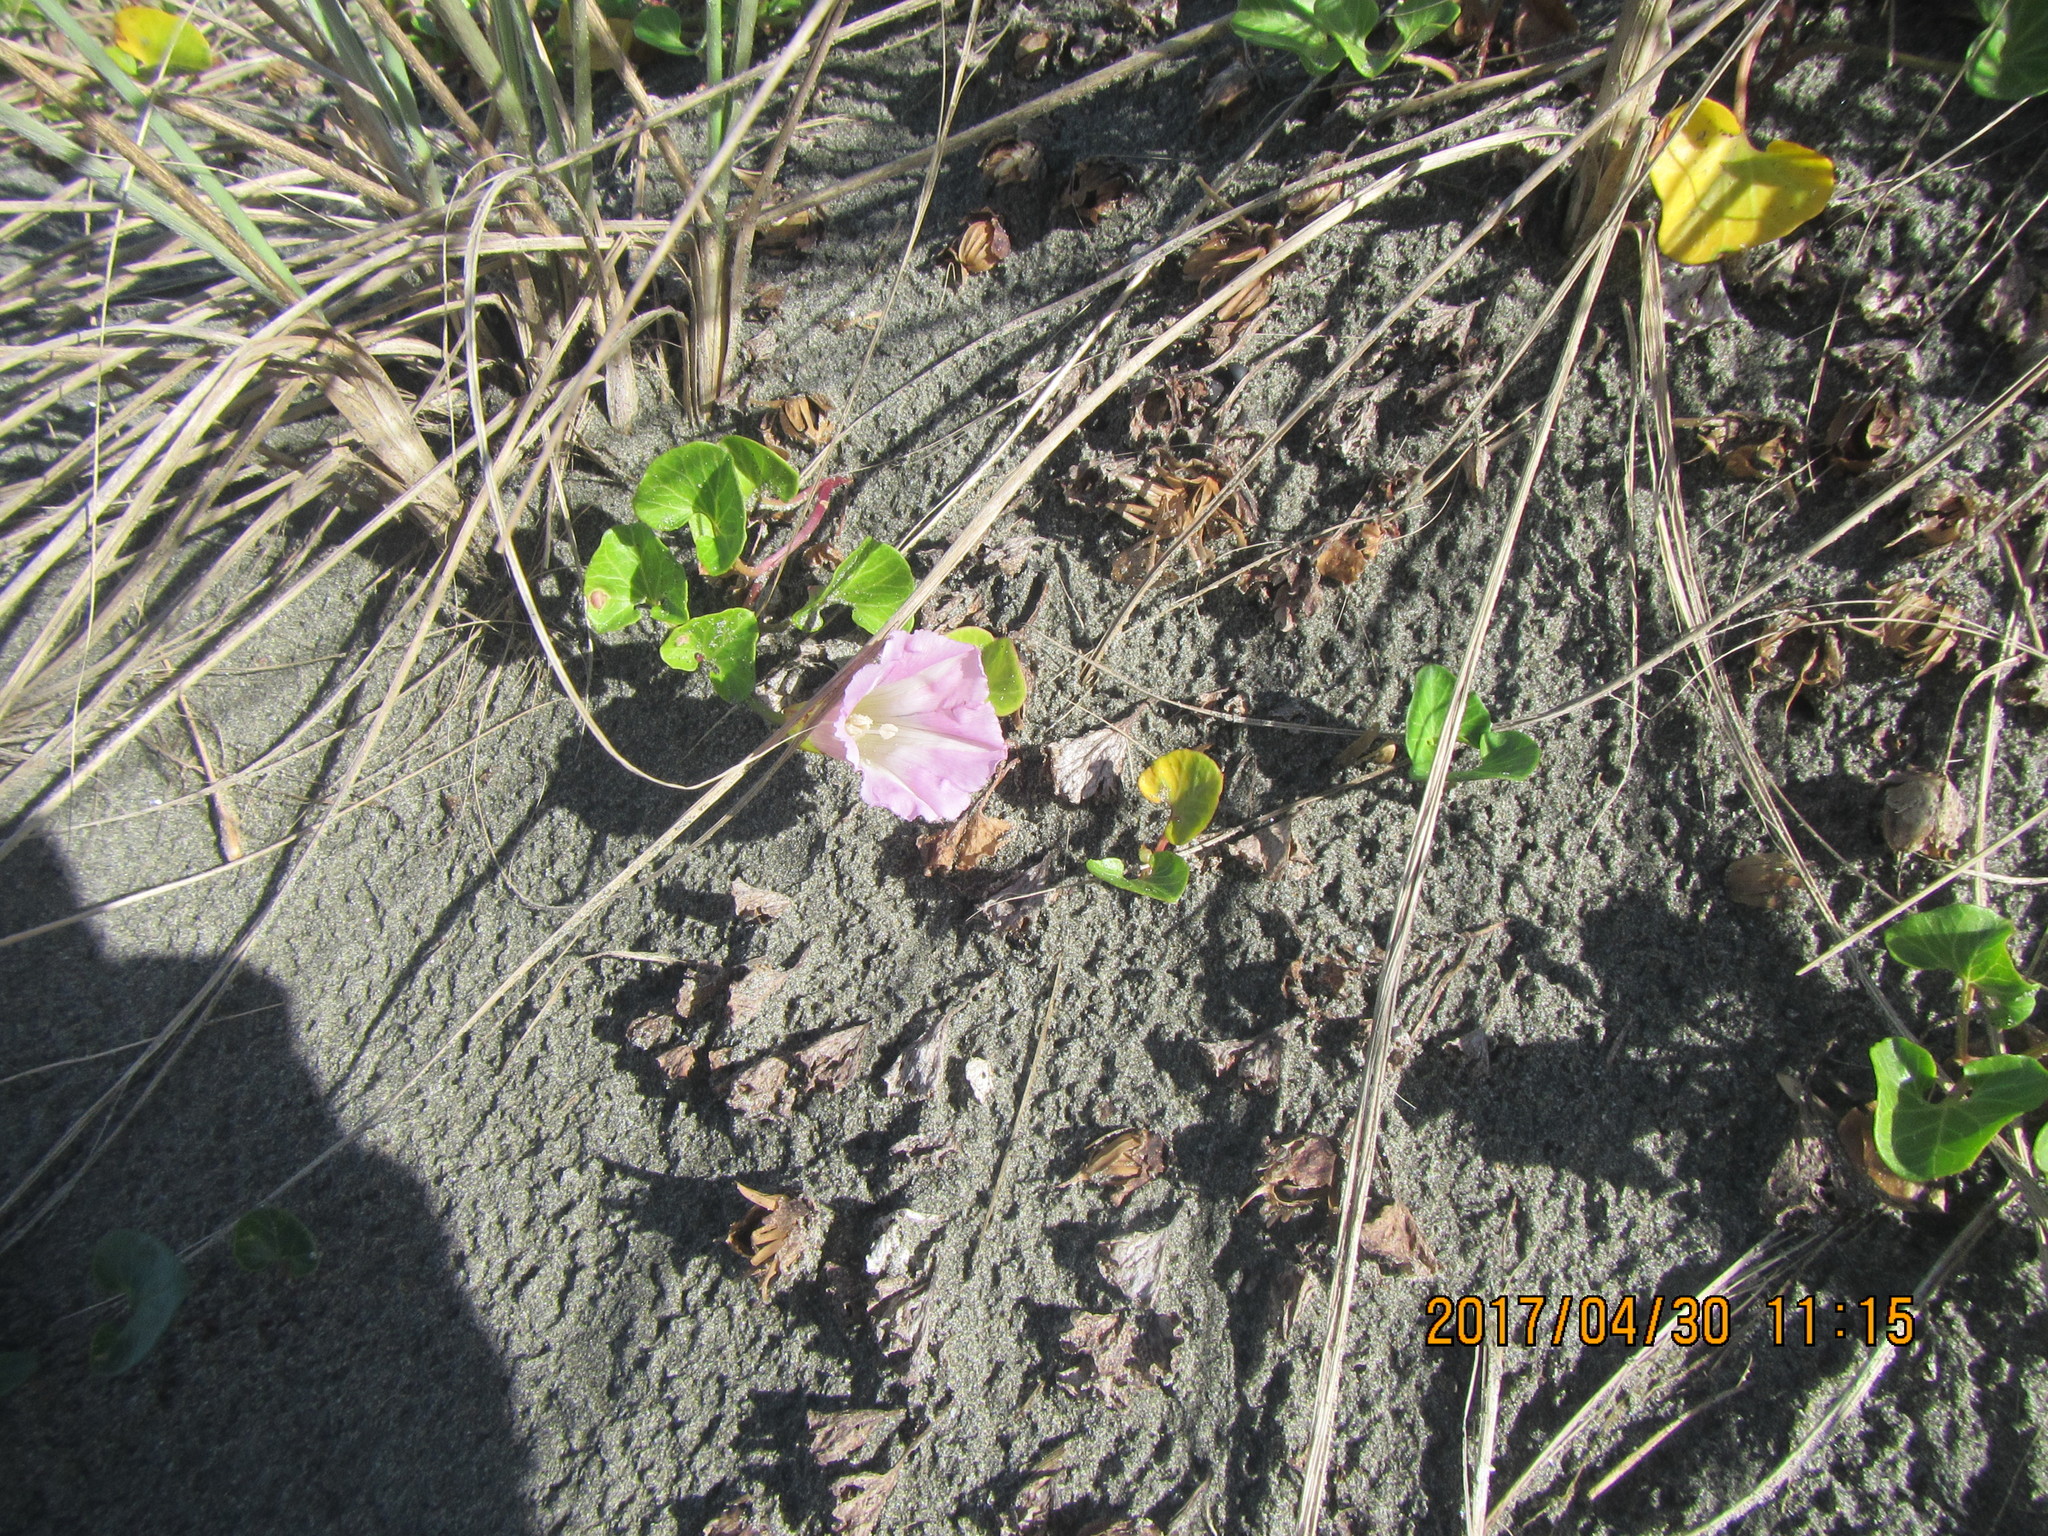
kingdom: Plantae
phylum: Tracheophyta
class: Magnoliopsida
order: Solanales
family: Convolvulaceae
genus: Calystegia
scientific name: Calystegia soldanella
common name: Sea bindweed
